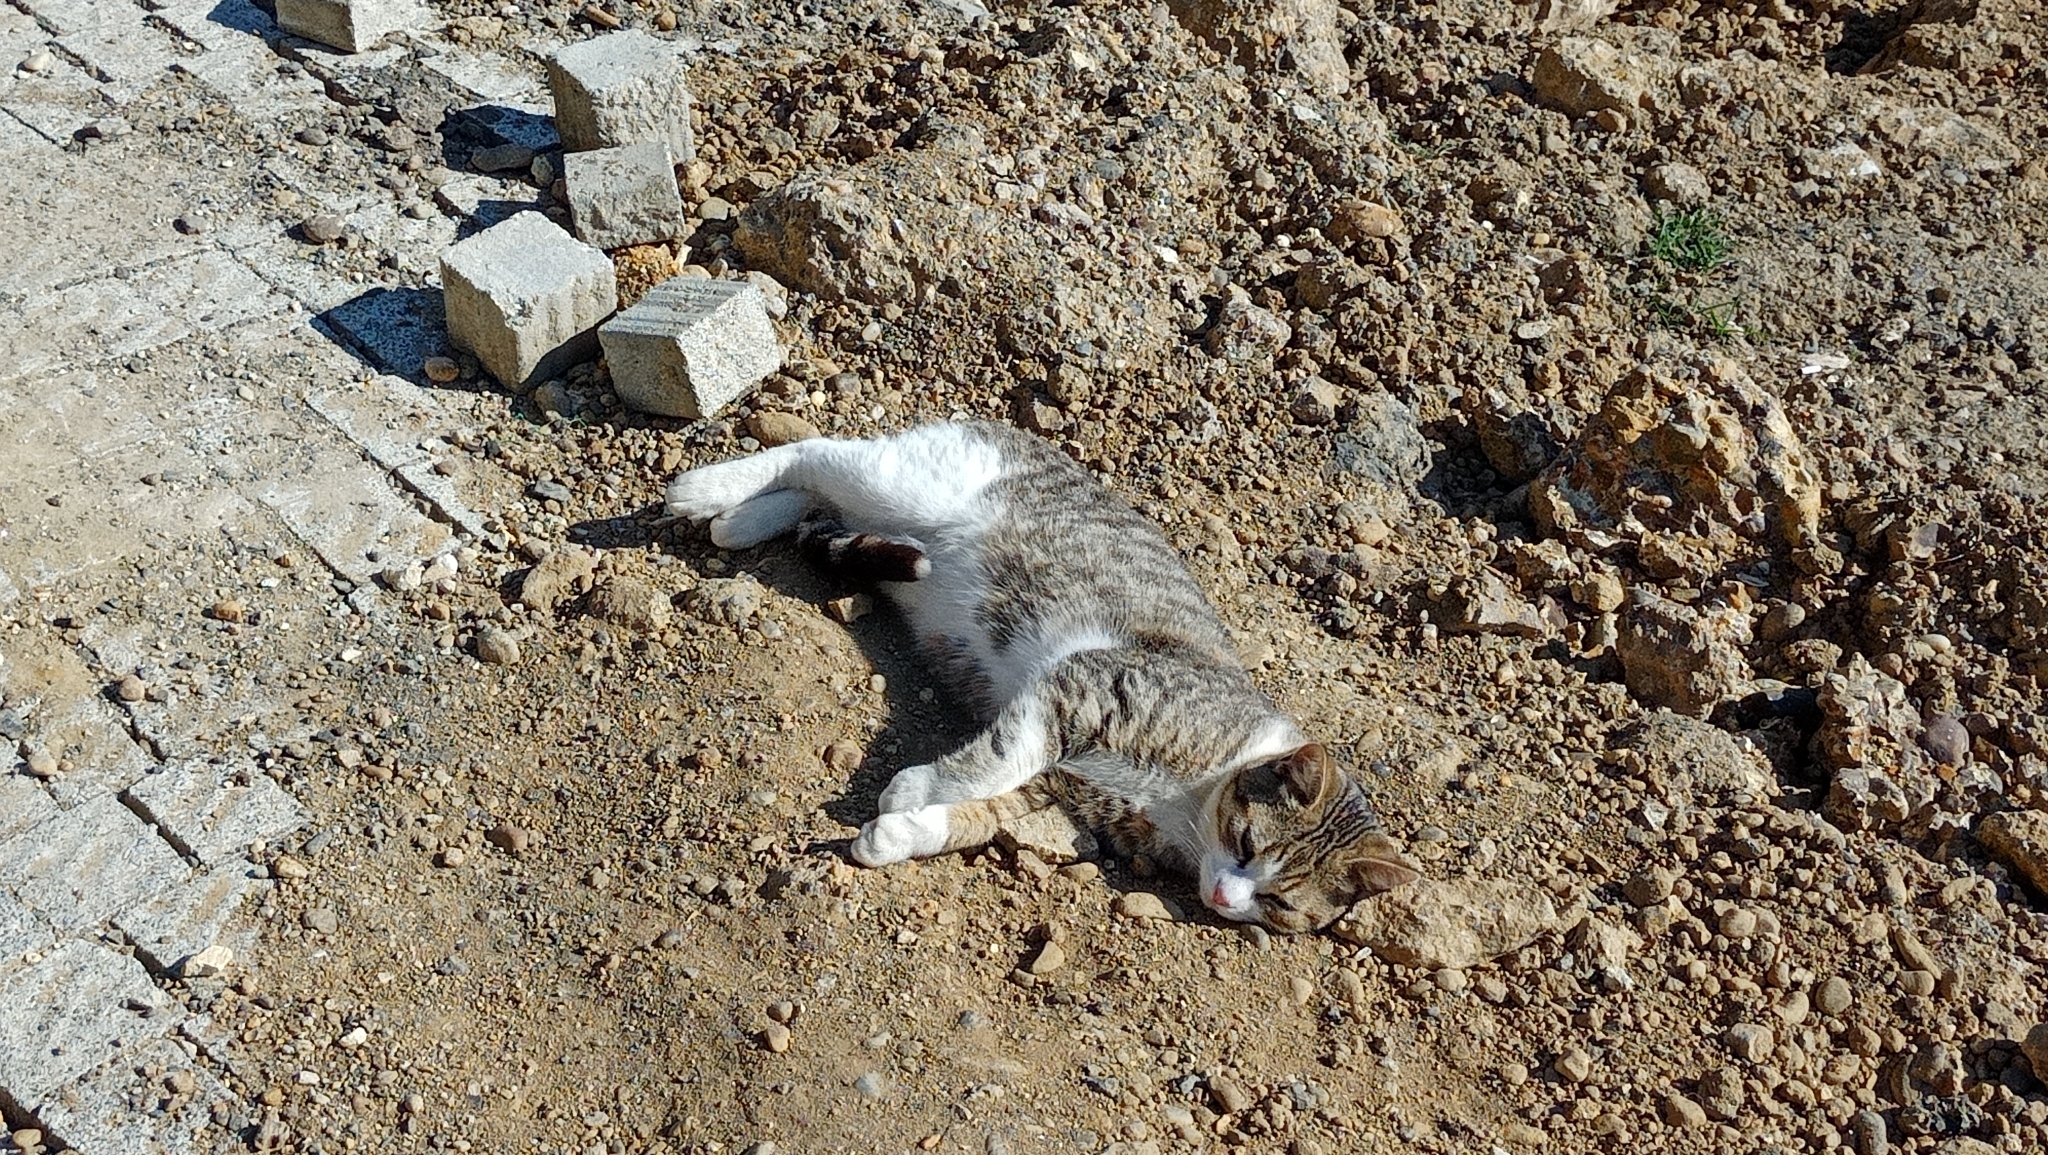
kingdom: Animalia
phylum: Chordata
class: Mammalia
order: Carnivora
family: Felidae
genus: Felis
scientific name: Felis catus
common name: Domestic cat
